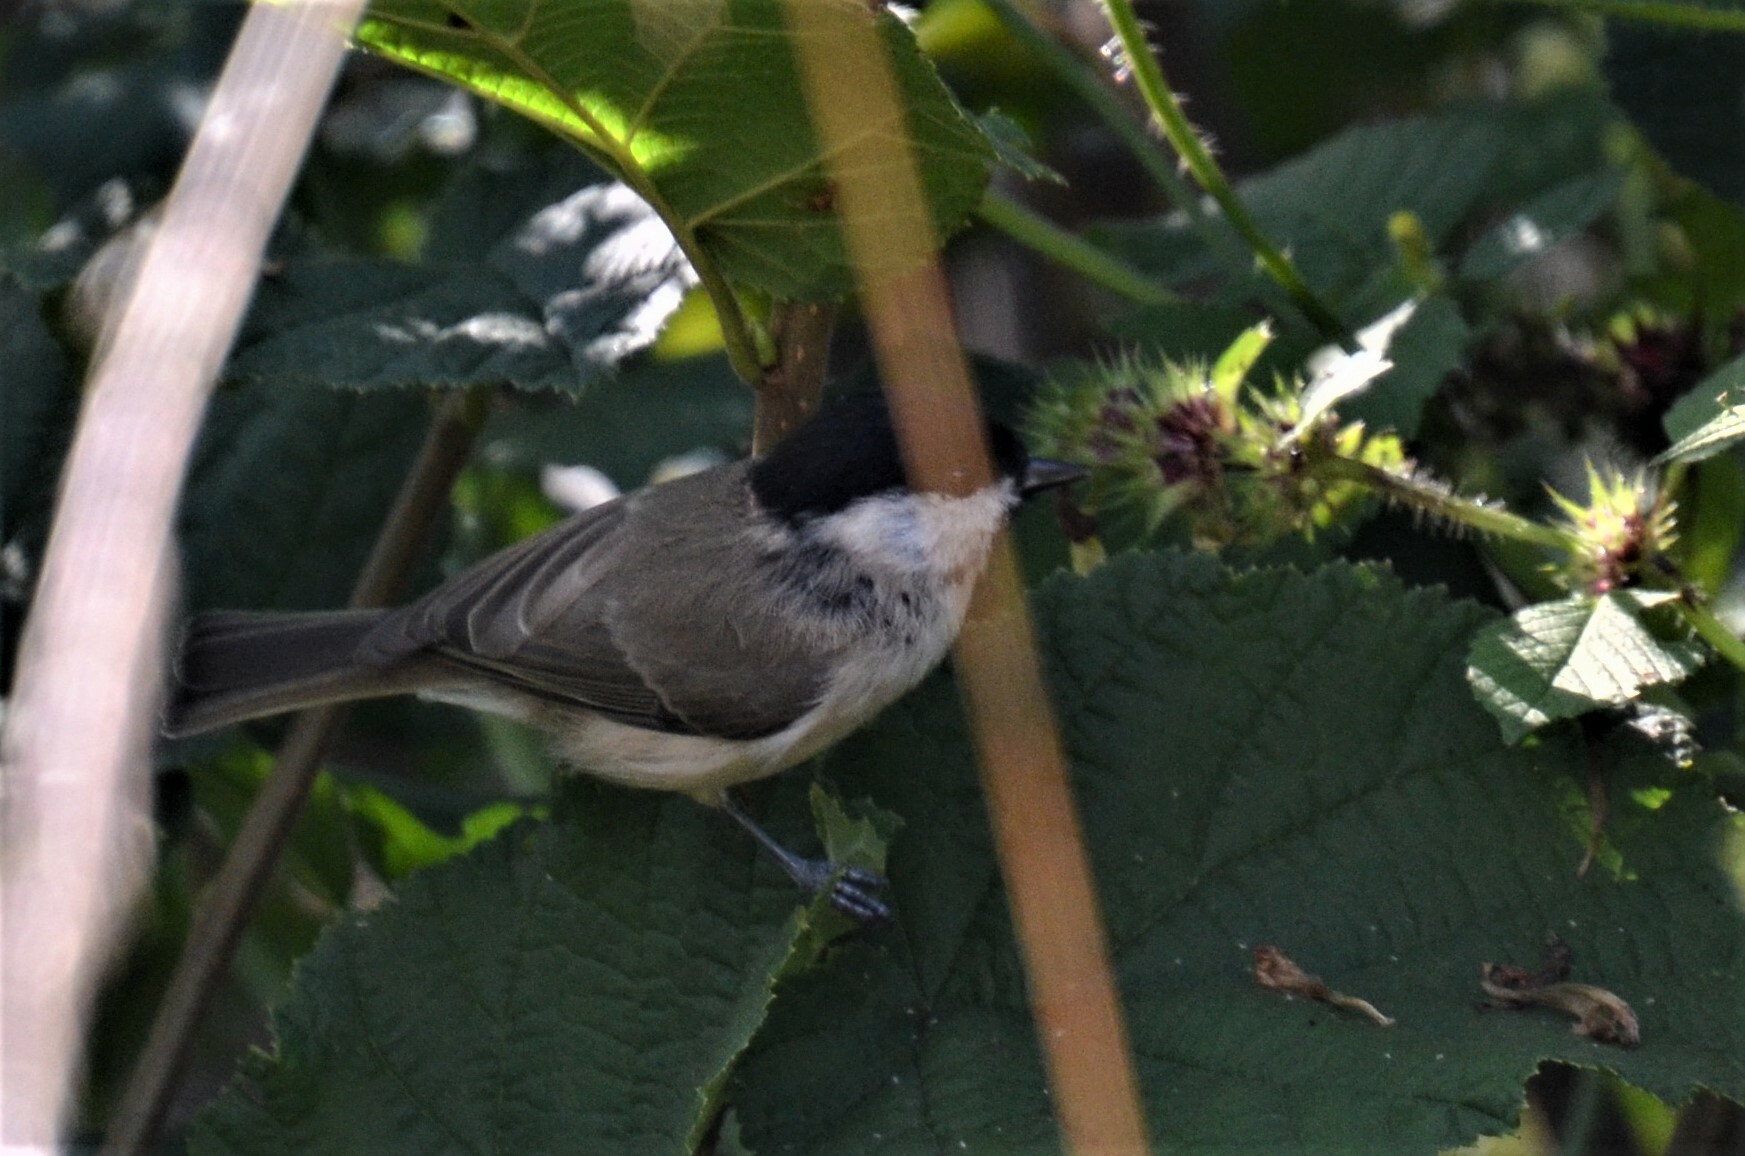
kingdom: Animalia
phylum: Chordata
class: Aves
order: Passeriformes
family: Paridae
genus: Poecile
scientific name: Poecile palustris
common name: Marsh tit
